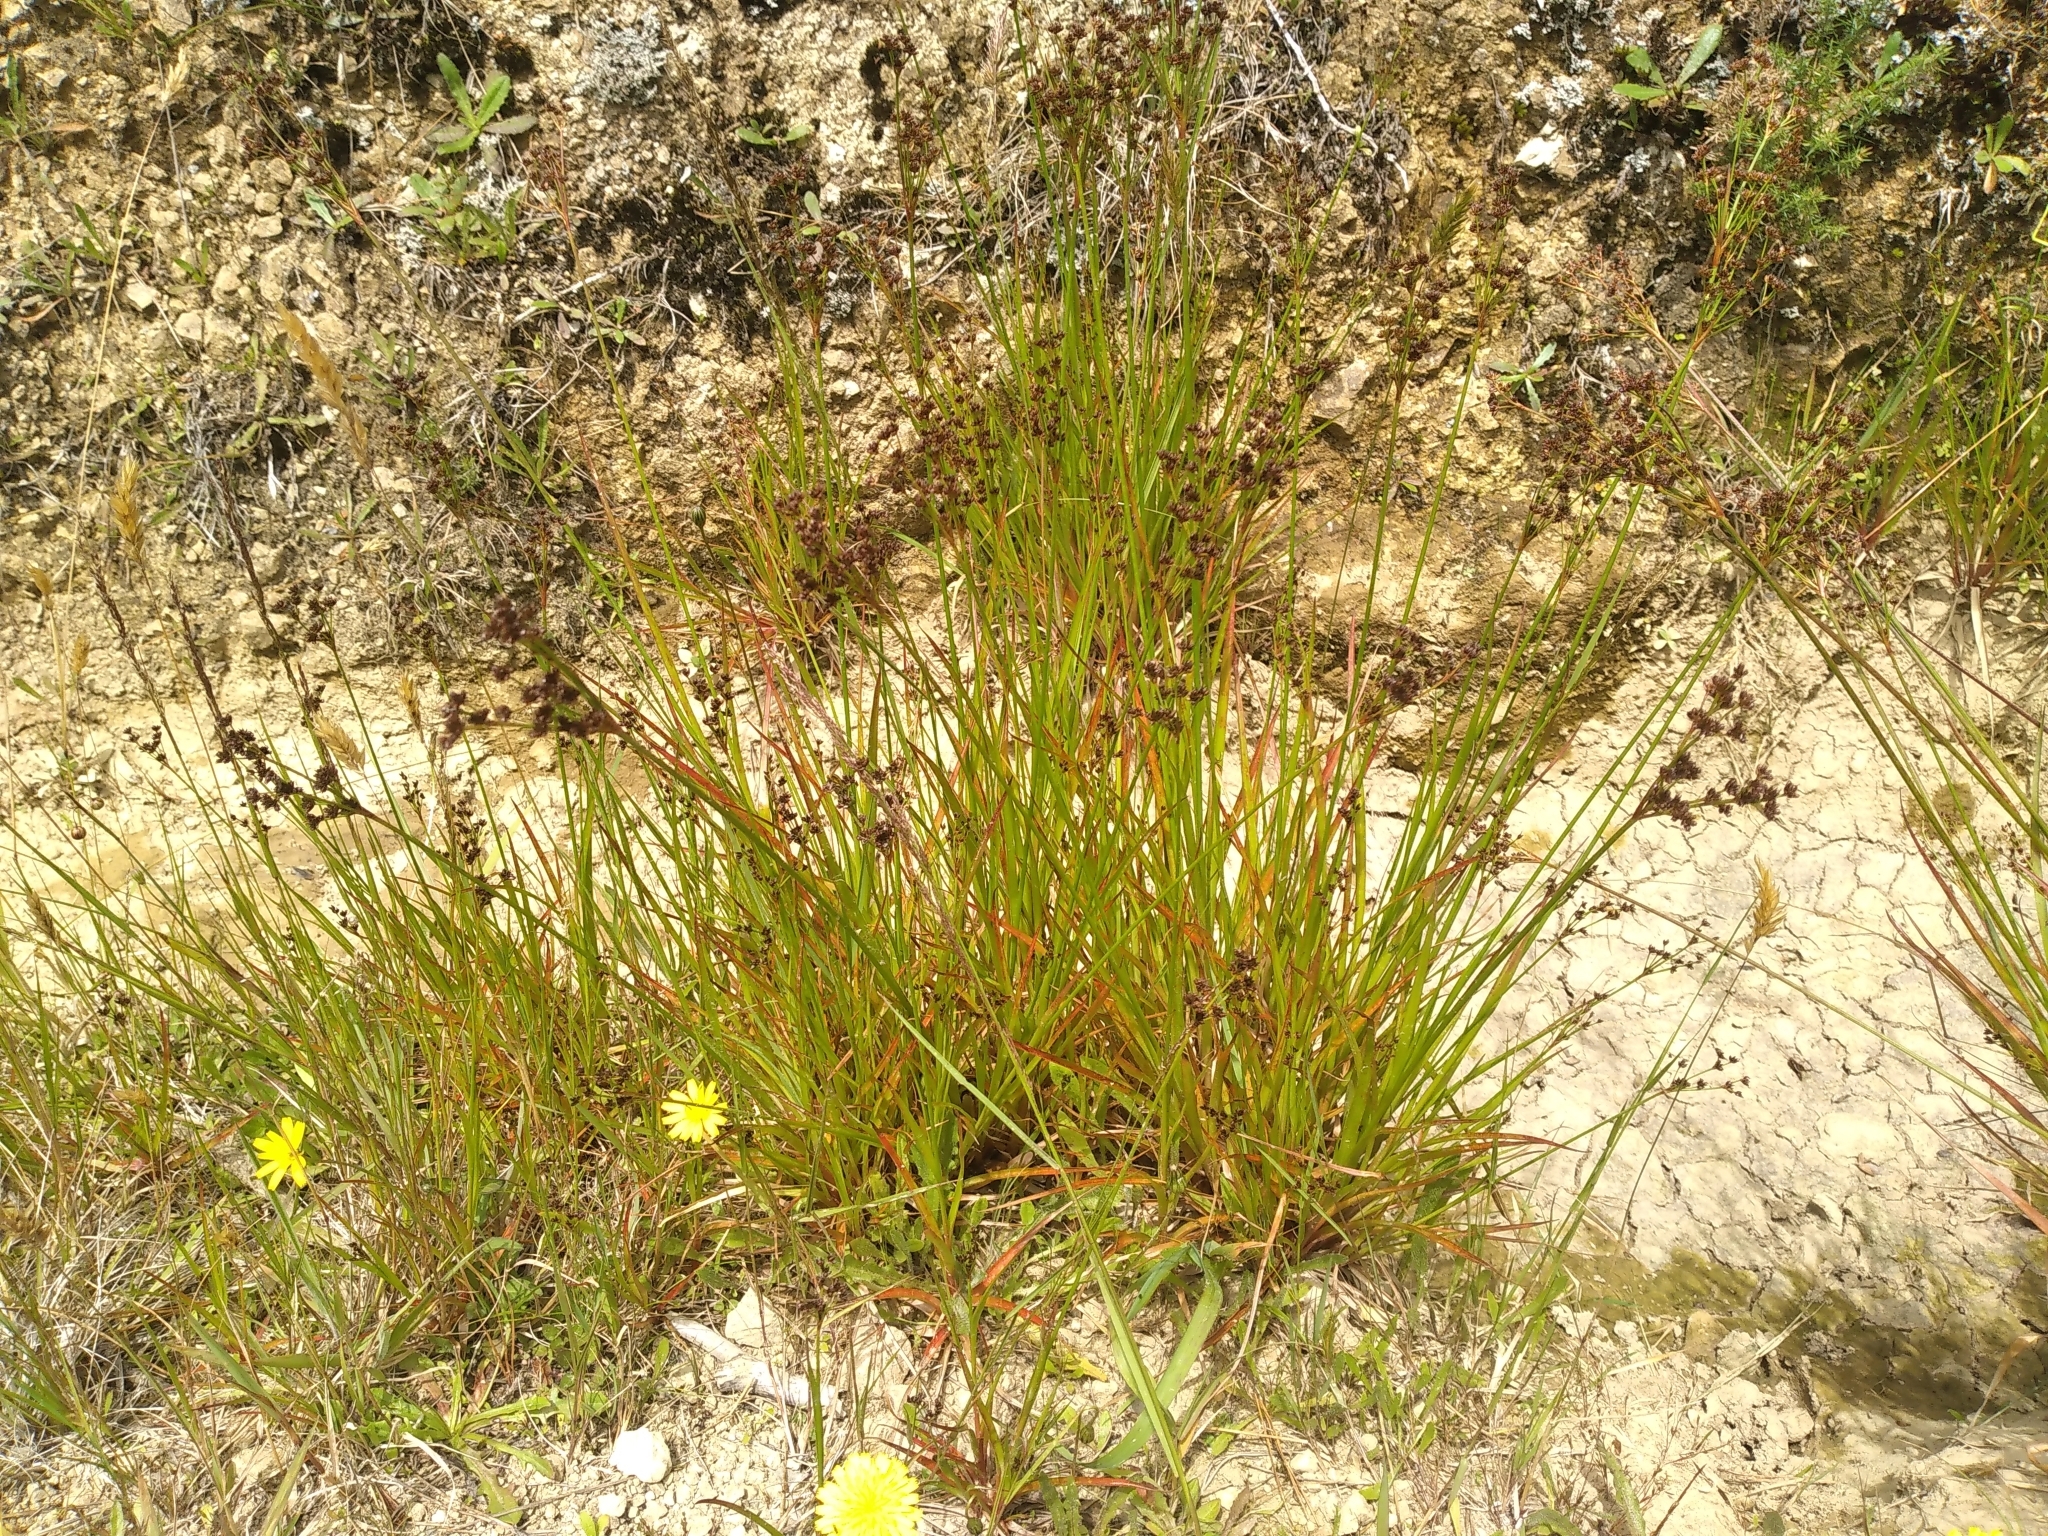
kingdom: Plantae
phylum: Tracheophyta
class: Liliopsida
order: Poales
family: Juncaceae
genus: Juncus
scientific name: Juncus planifolius
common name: Broadleaf rush
